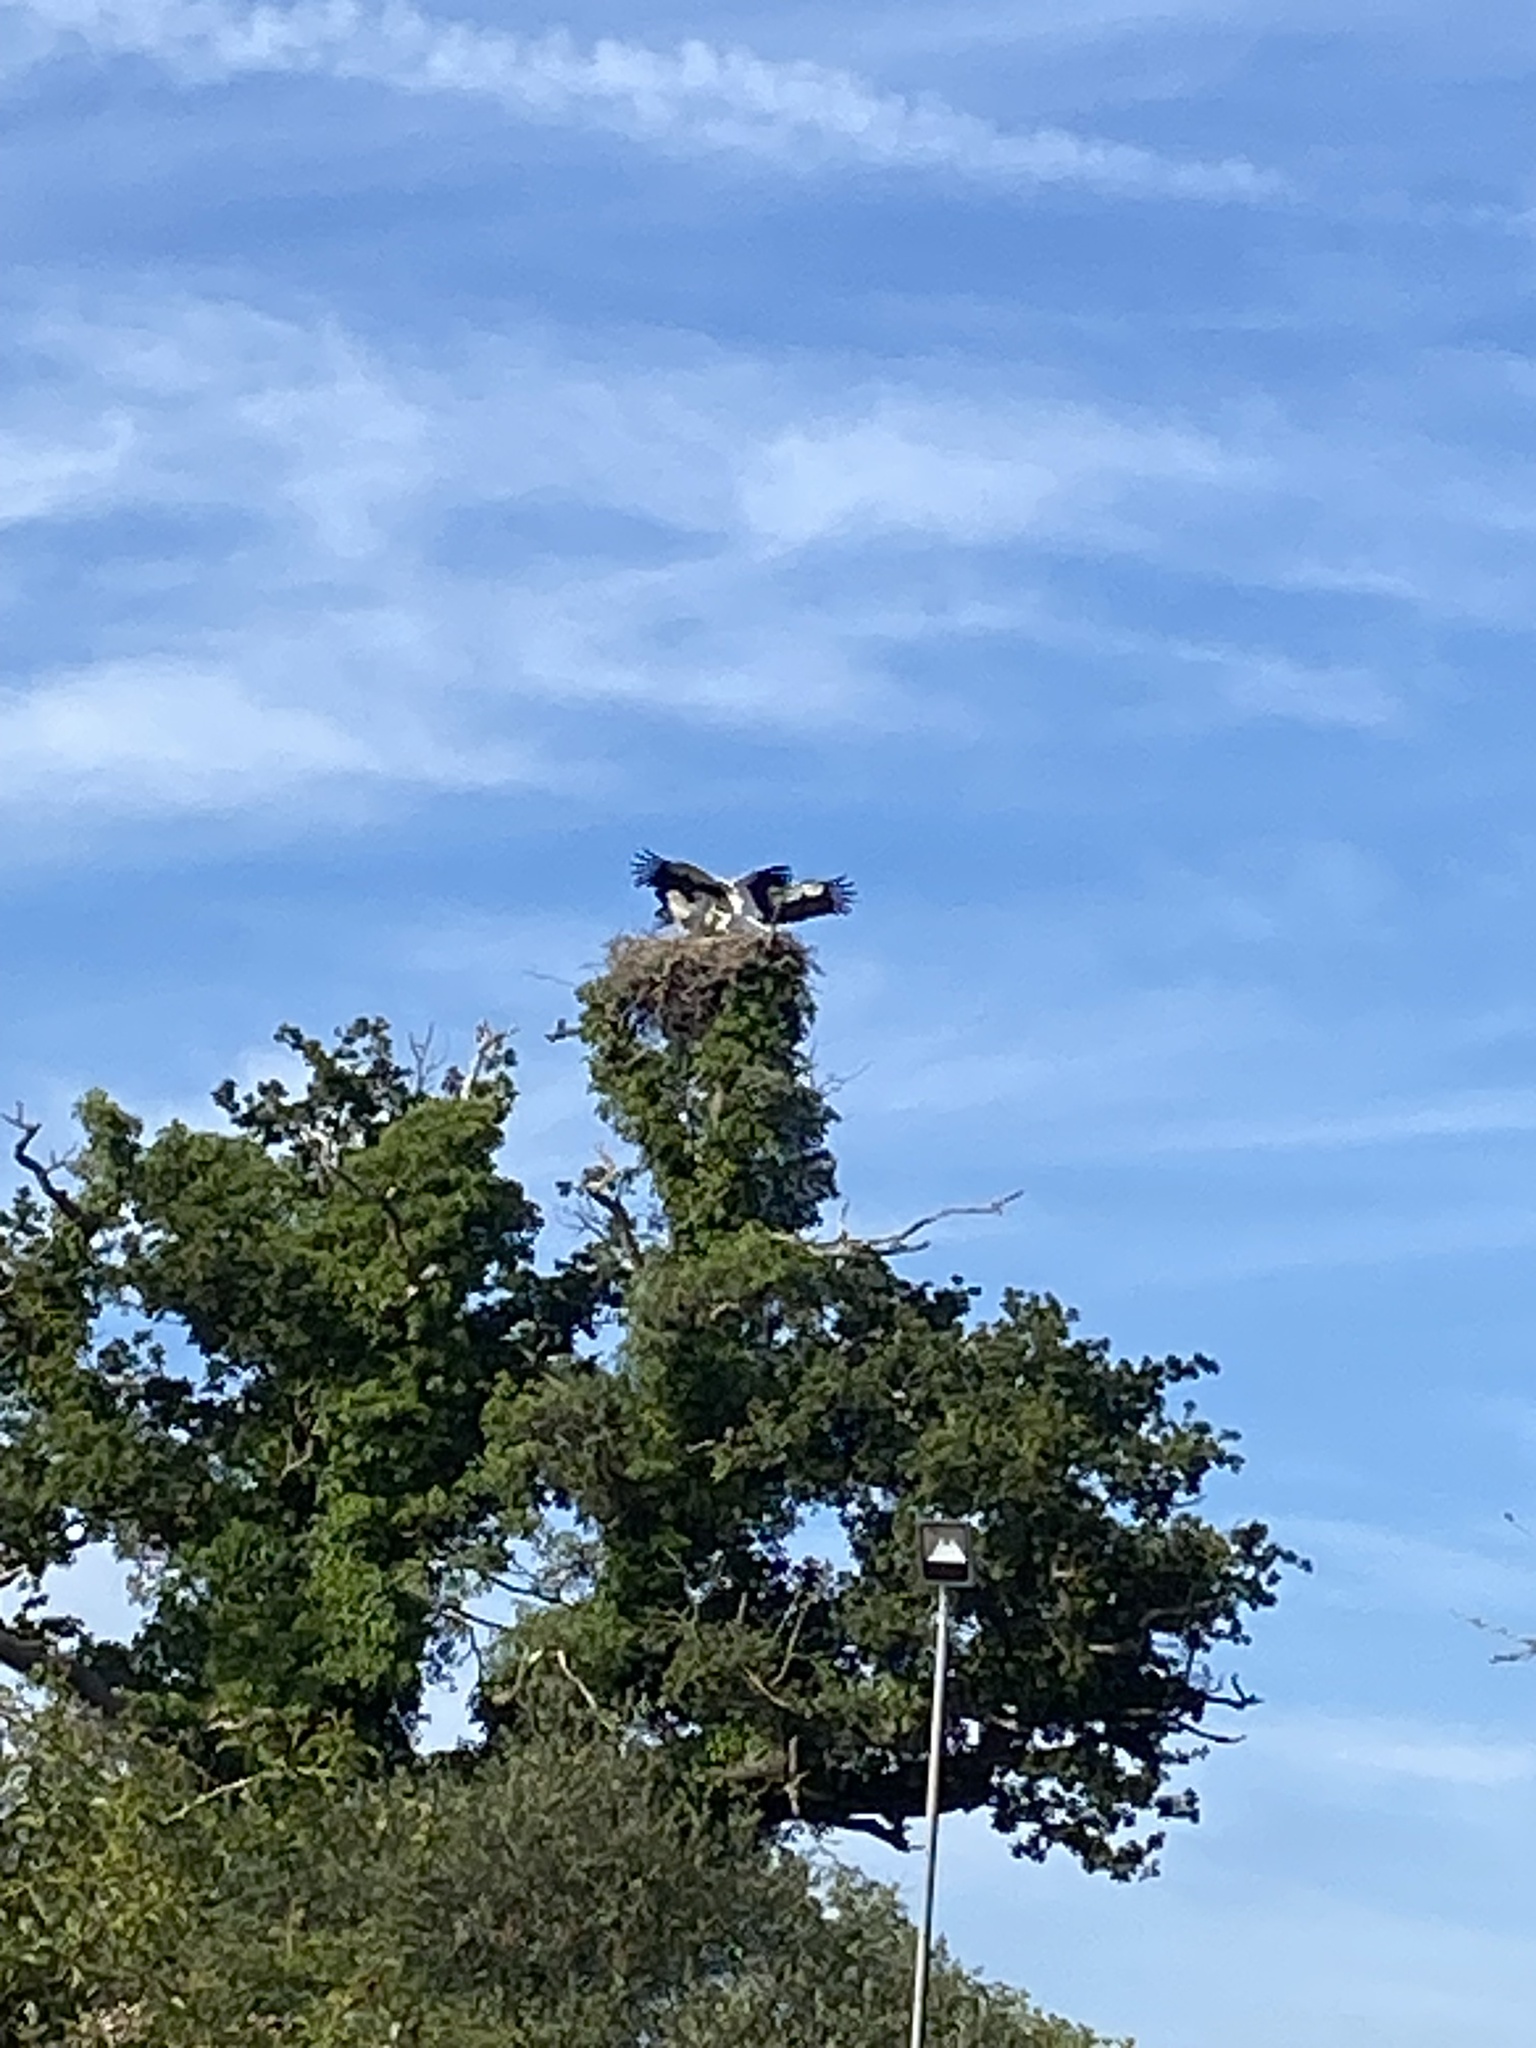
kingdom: Animalia
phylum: Chordata
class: Aves
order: Ciconiiformes
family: Ciconiidae
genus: Ciconia
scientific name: Ciconia ciconia
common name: White stork
